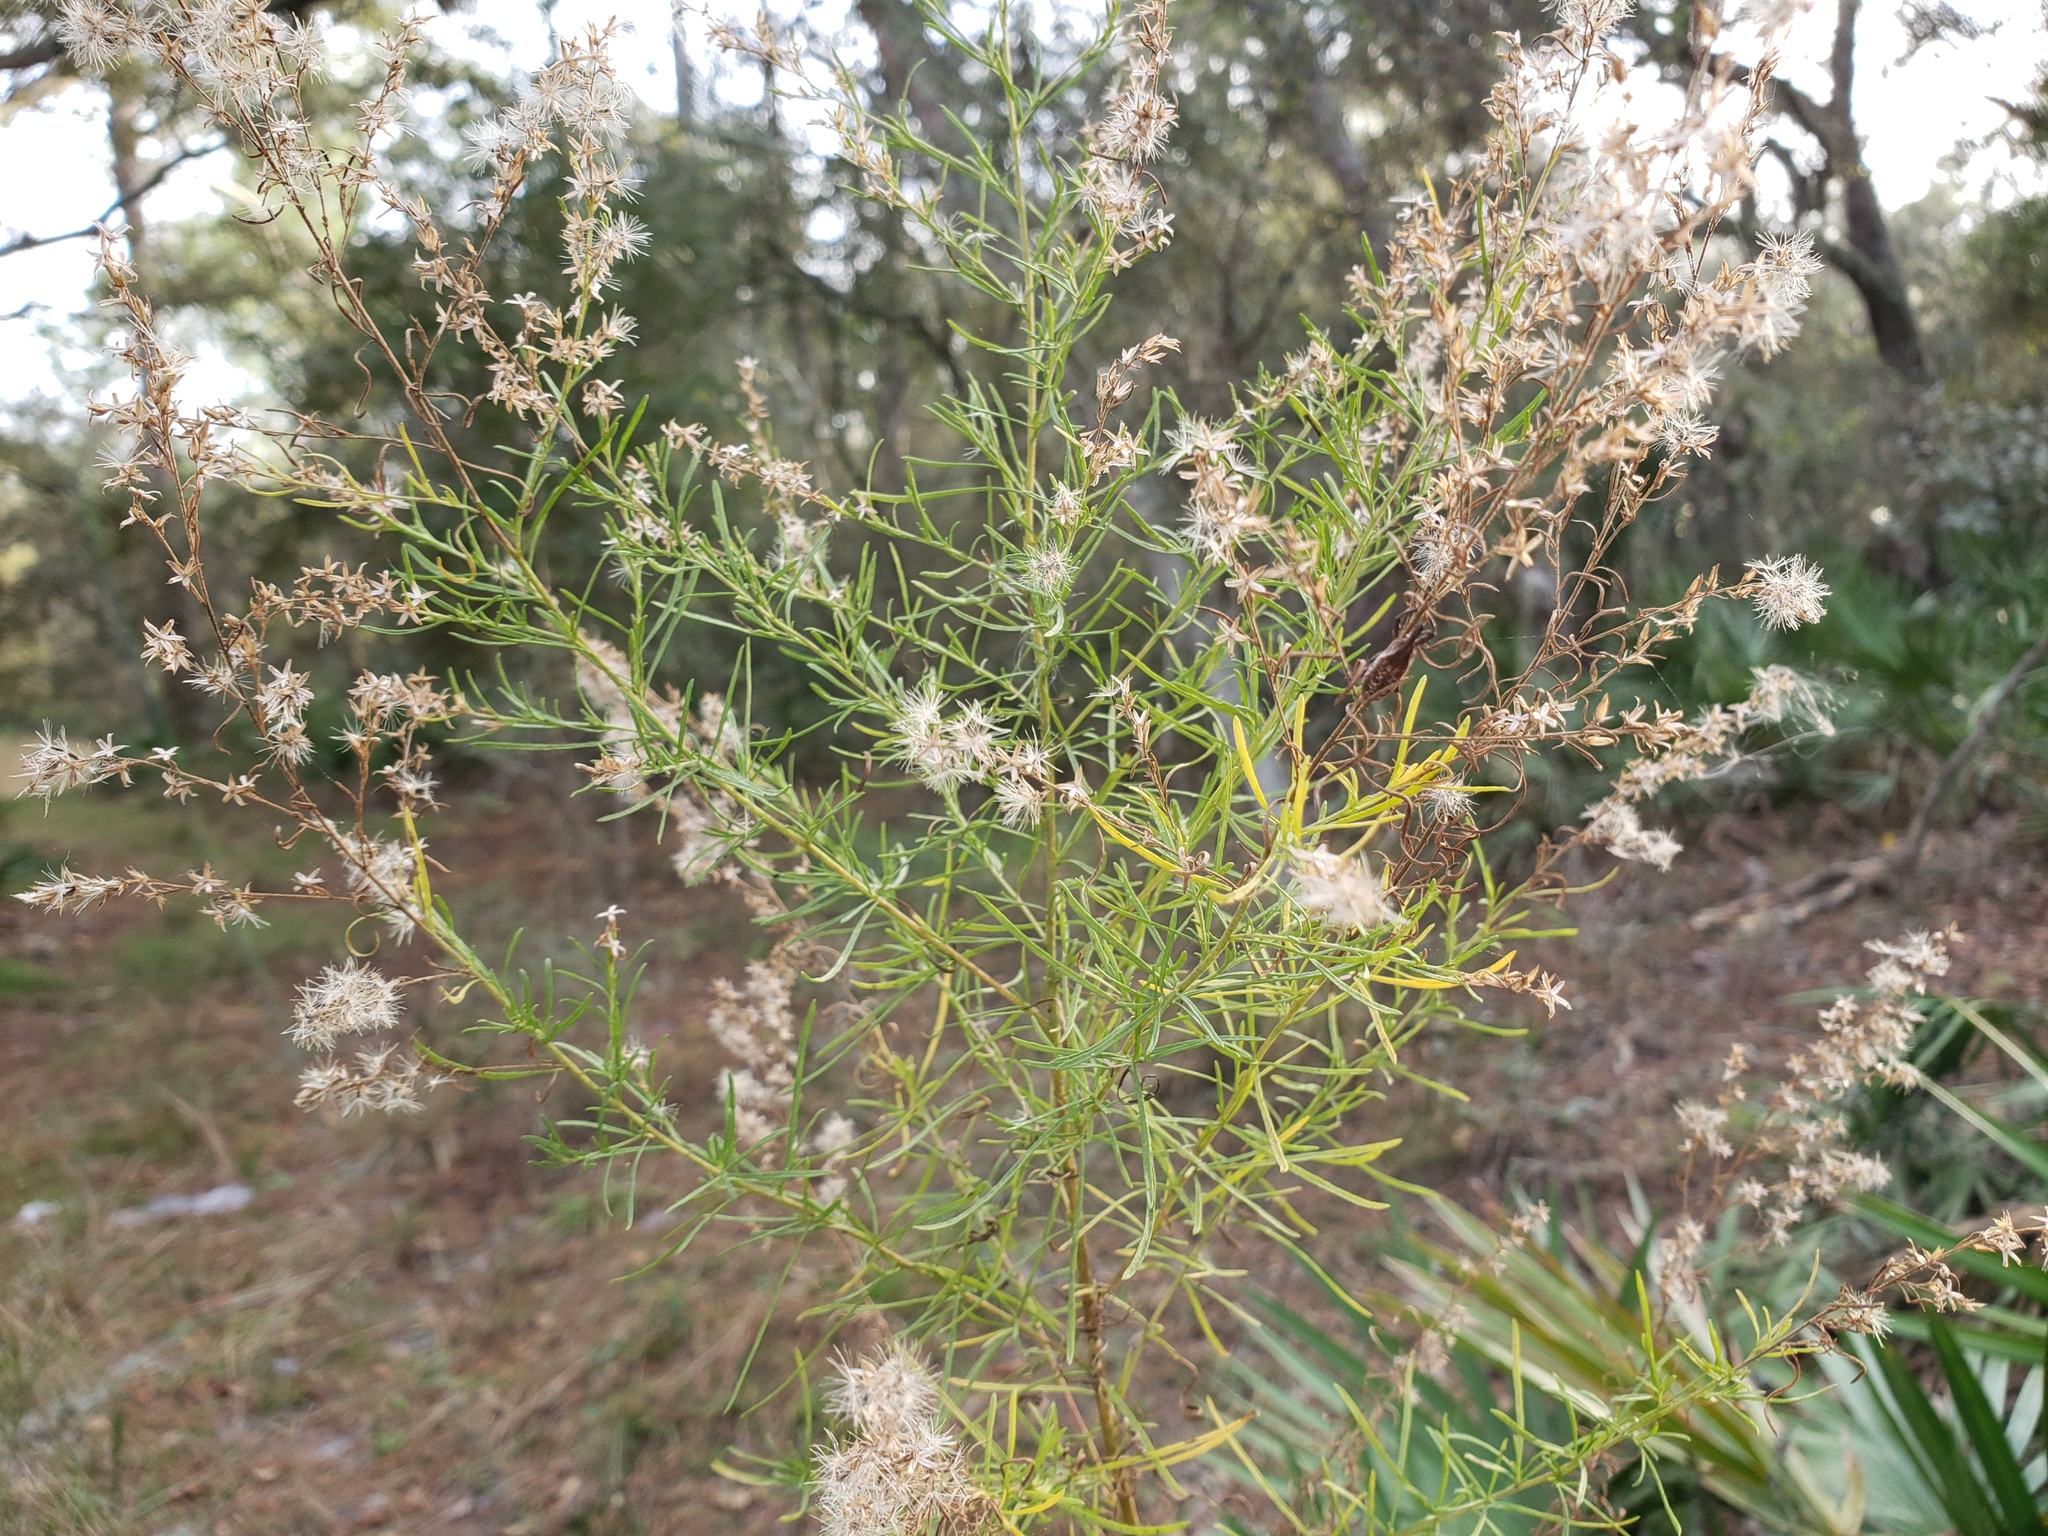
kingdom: Plantae
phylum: Tracheophyta
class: Magnoliopsida
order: Asterales
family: Asteraceae
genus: Euthamia
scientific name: Euthamia caroliniana
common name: Coastal plain goldentop
